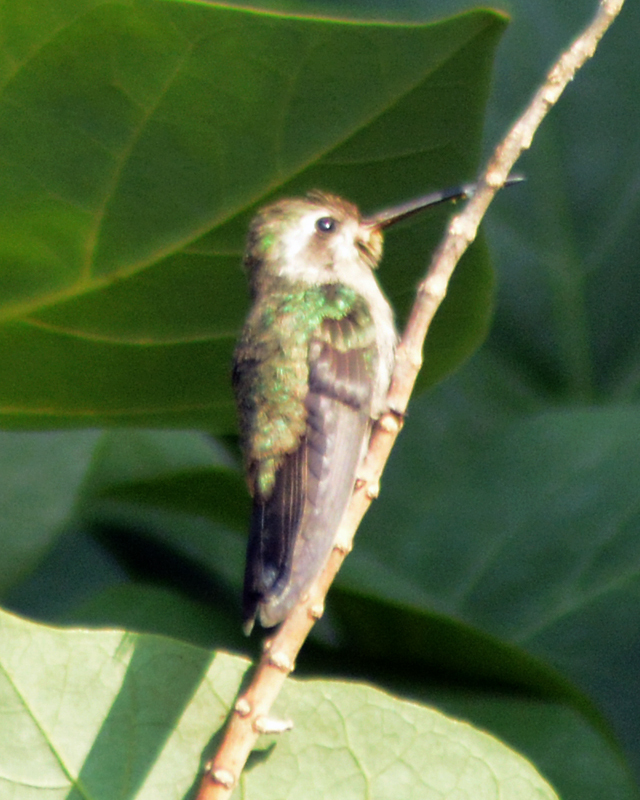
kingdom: Animalia
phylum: Chordata
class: Aves
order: Apodiformes
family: Trochilidae
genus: Cynanthus
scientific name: Cynanthus latirostris
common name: Broad-billed hummingbird
